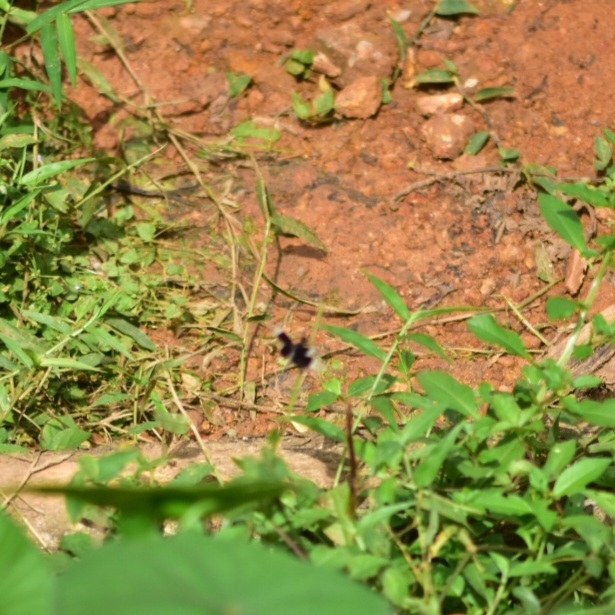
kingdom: Animalia
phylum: Arthropoda
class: Insecta
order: Odonata
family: Libellulidae
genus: Neurothemis
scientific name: Neurothemis tullia
